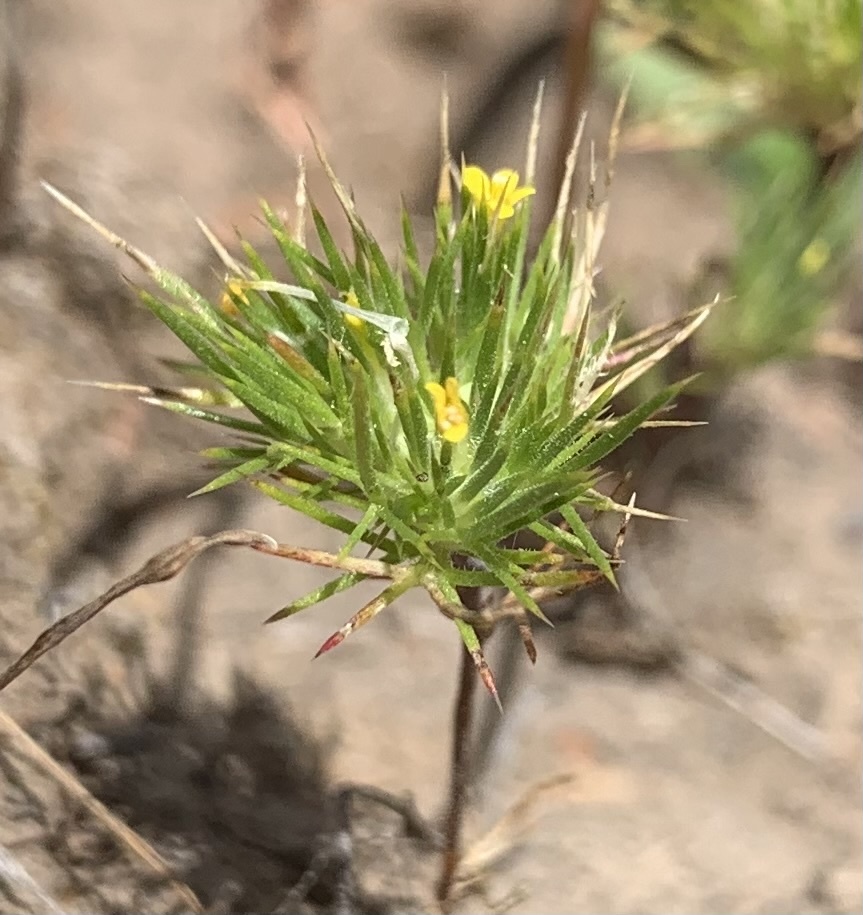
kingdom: Plantae
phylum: Tracheophyta
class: Magnoliopsida
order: Ericales
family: Polemoniaceae
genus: Navarretia
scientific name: Navarretia breweri
